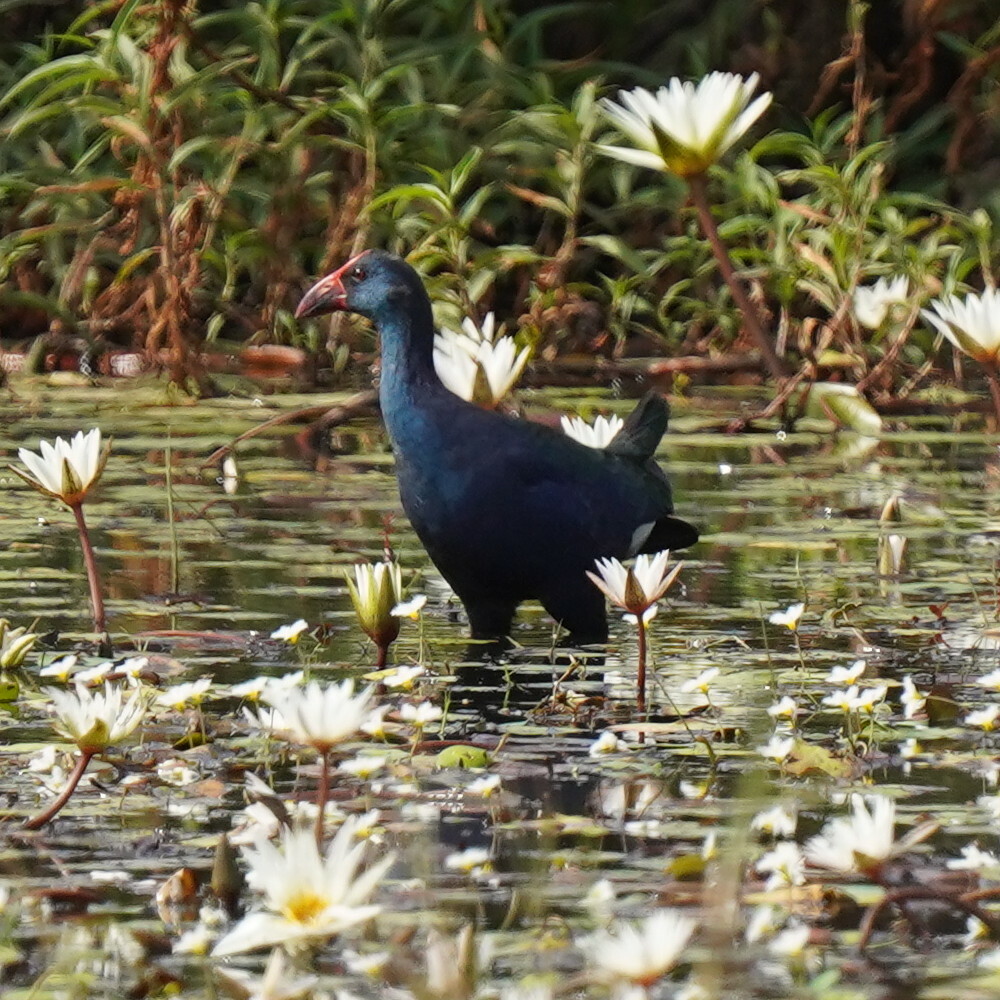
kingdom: Animalia
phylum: Chordata
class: Aves
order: Gruiformes
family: Rallidae
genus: Porphyrio
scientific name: Porphyrio porphyrio
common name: Purple swamphen
